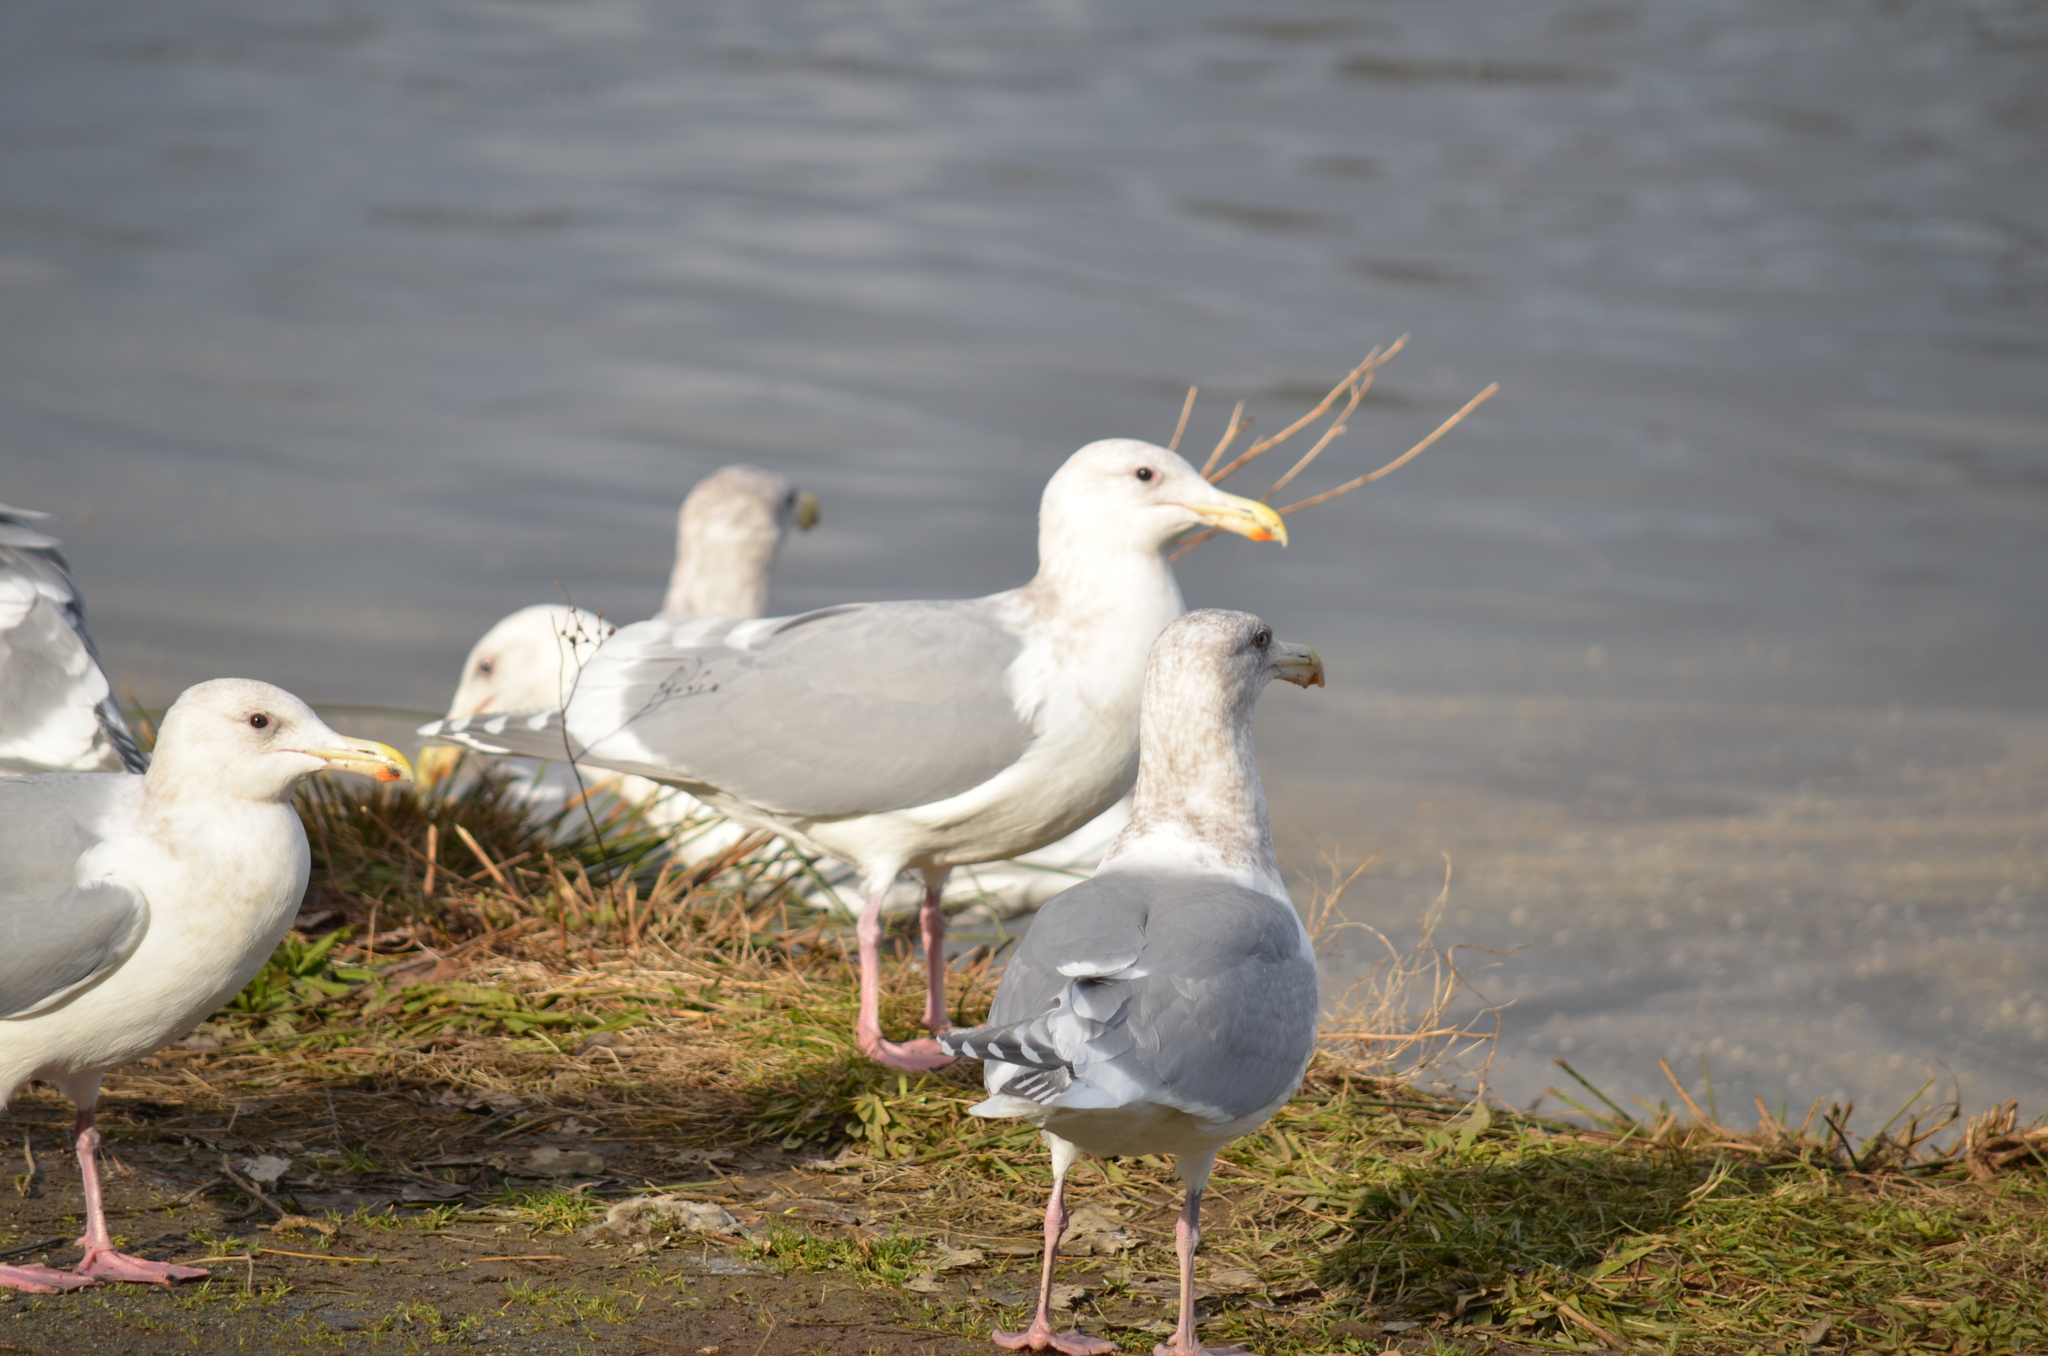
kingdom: Animalia
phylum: Chordata
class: Aves
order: Charadriiformes
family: Laridae
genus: Larus
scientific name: Larus glaucescens
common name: Glaucous-winged gull
